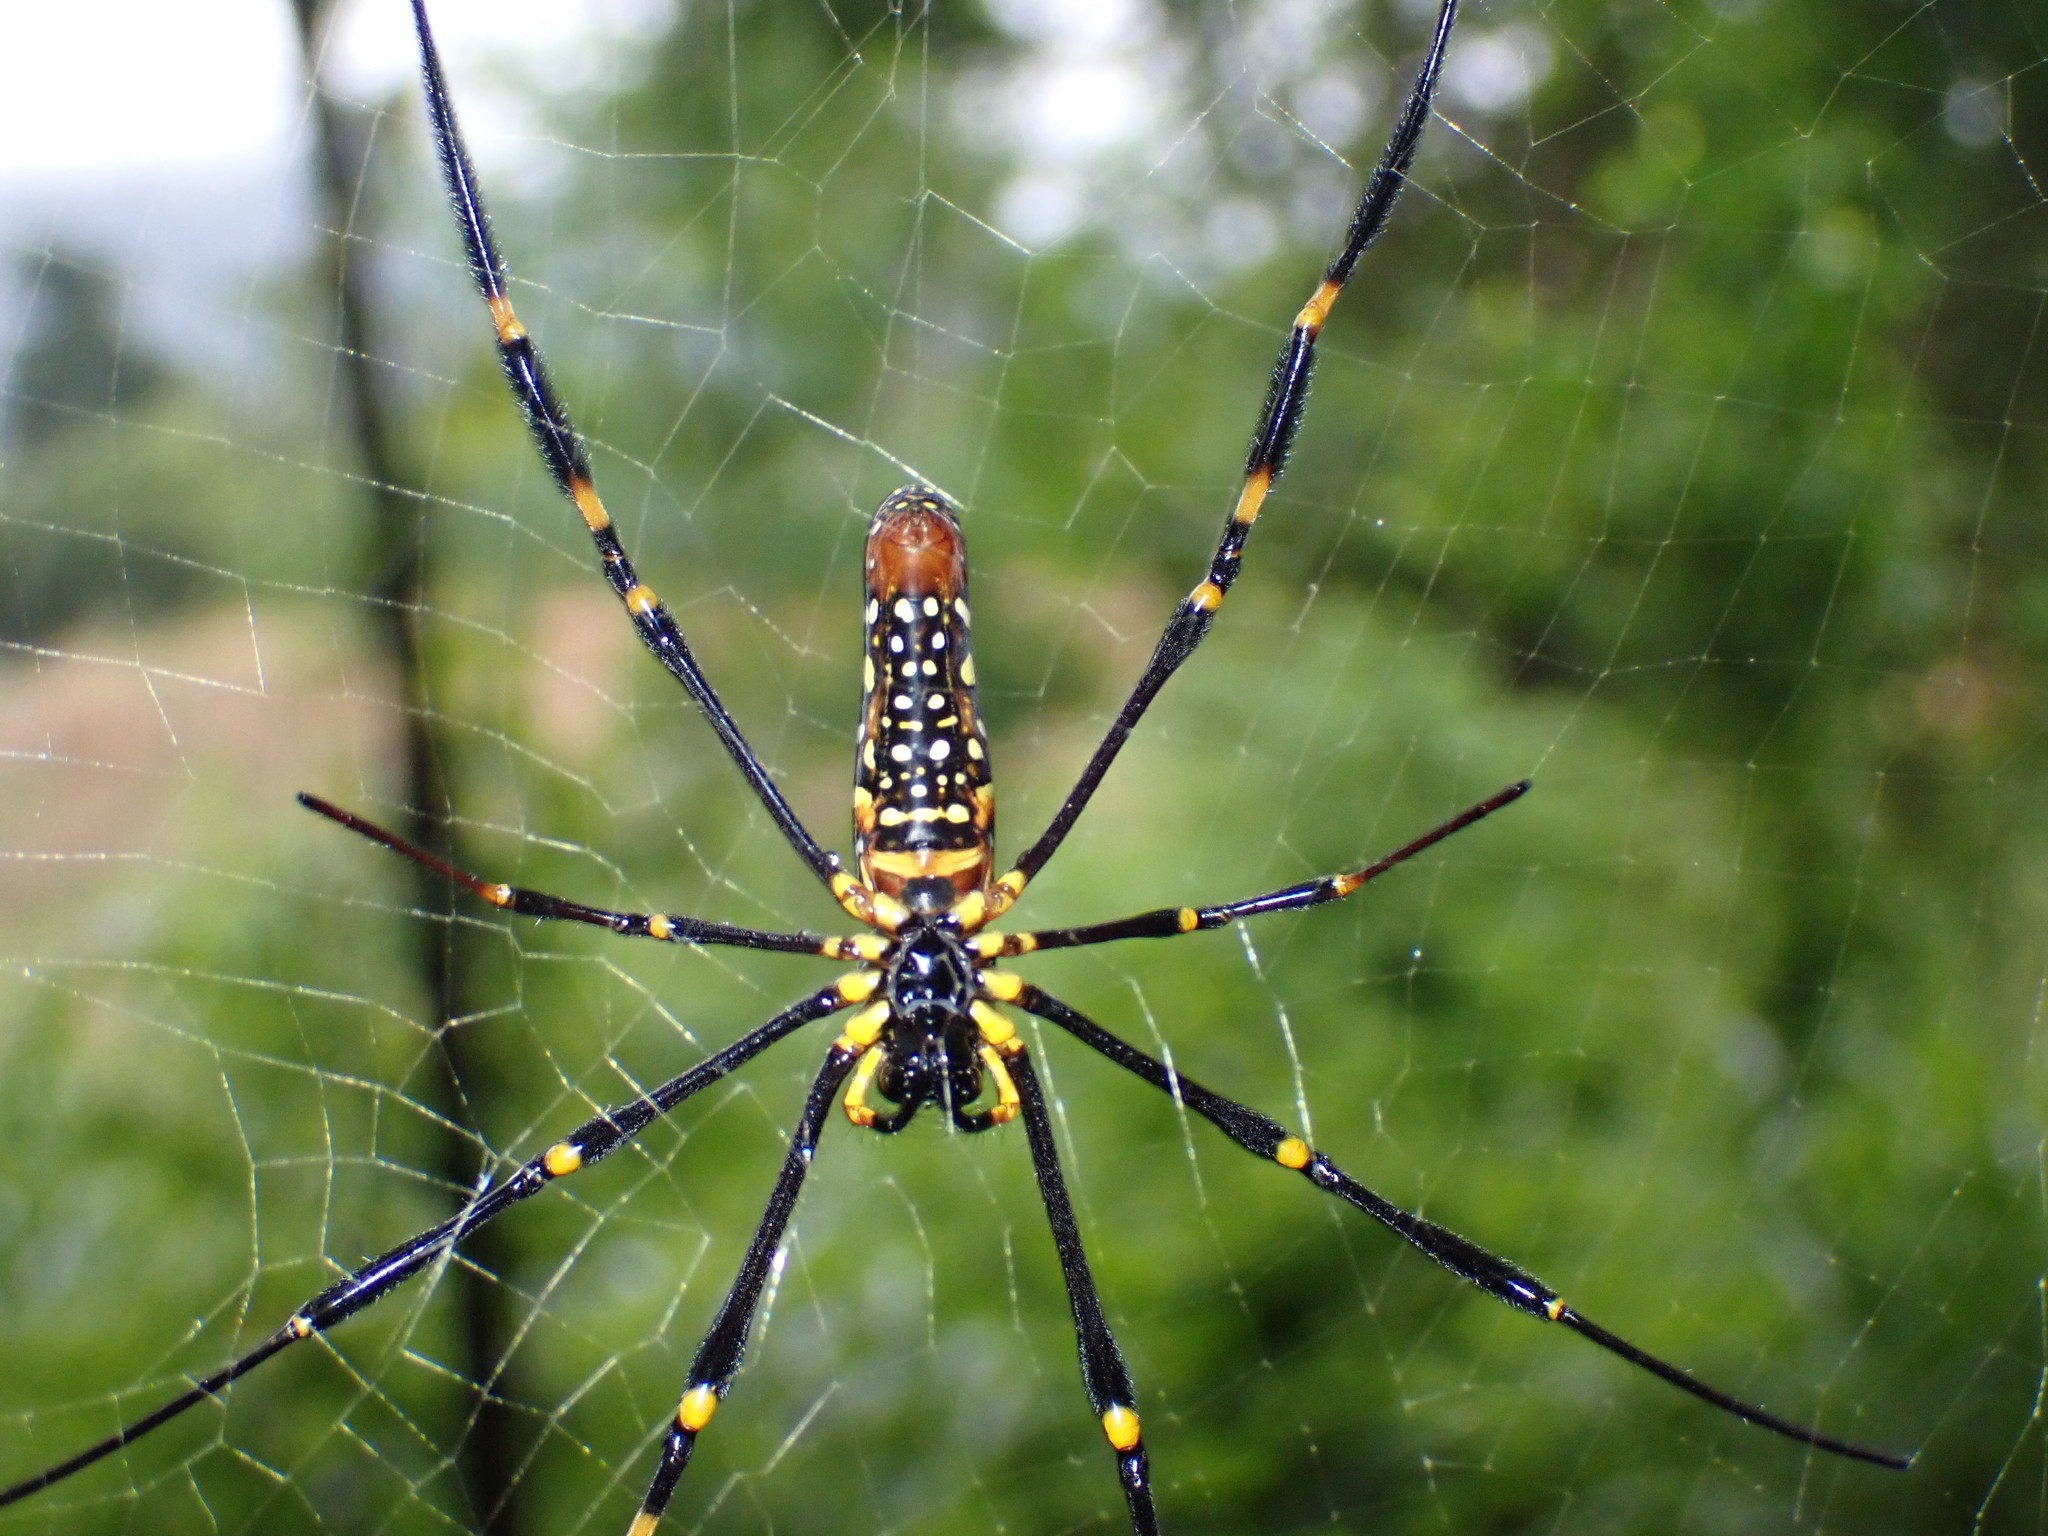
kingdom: Animalia
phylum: Arthropoda
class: Arachnida
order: Araneae
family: Araneidae
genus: Nephila
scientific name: Nephila pilipes
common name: Giant golden orb weaver
